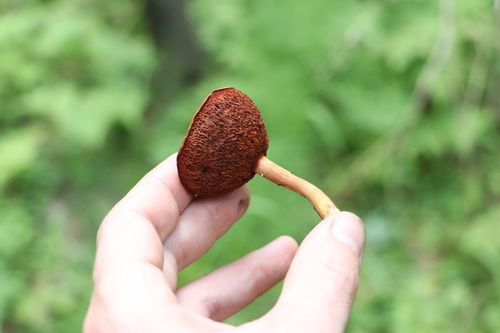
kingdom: Fungi
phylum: Basidiomycota
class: Agaricomycetes
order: Boletales
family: Boletaceae
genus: Chalciporus
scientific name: Chalciporus piperatus
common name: Peppery bolete
